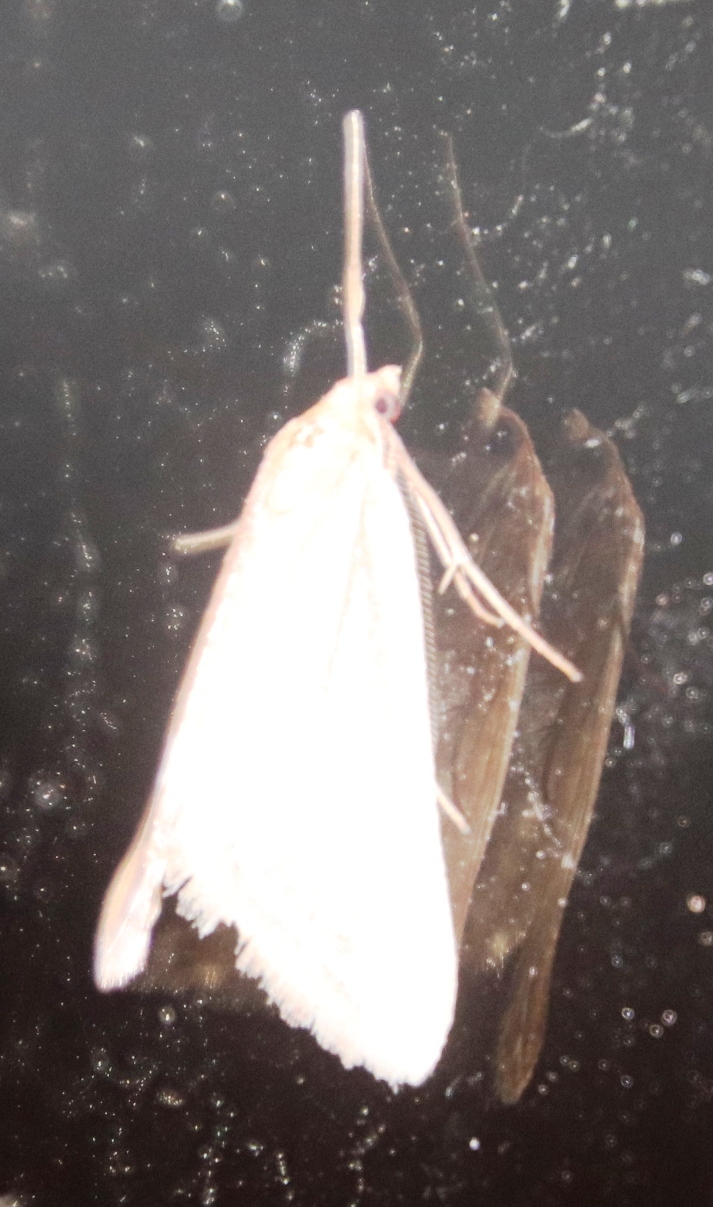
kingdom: Animalia
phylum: Arthropoda
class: Insecta
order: Lepidoptera
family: Geometridae
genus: Pseudomaenas
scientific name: Pseudomaenas leucograpta
